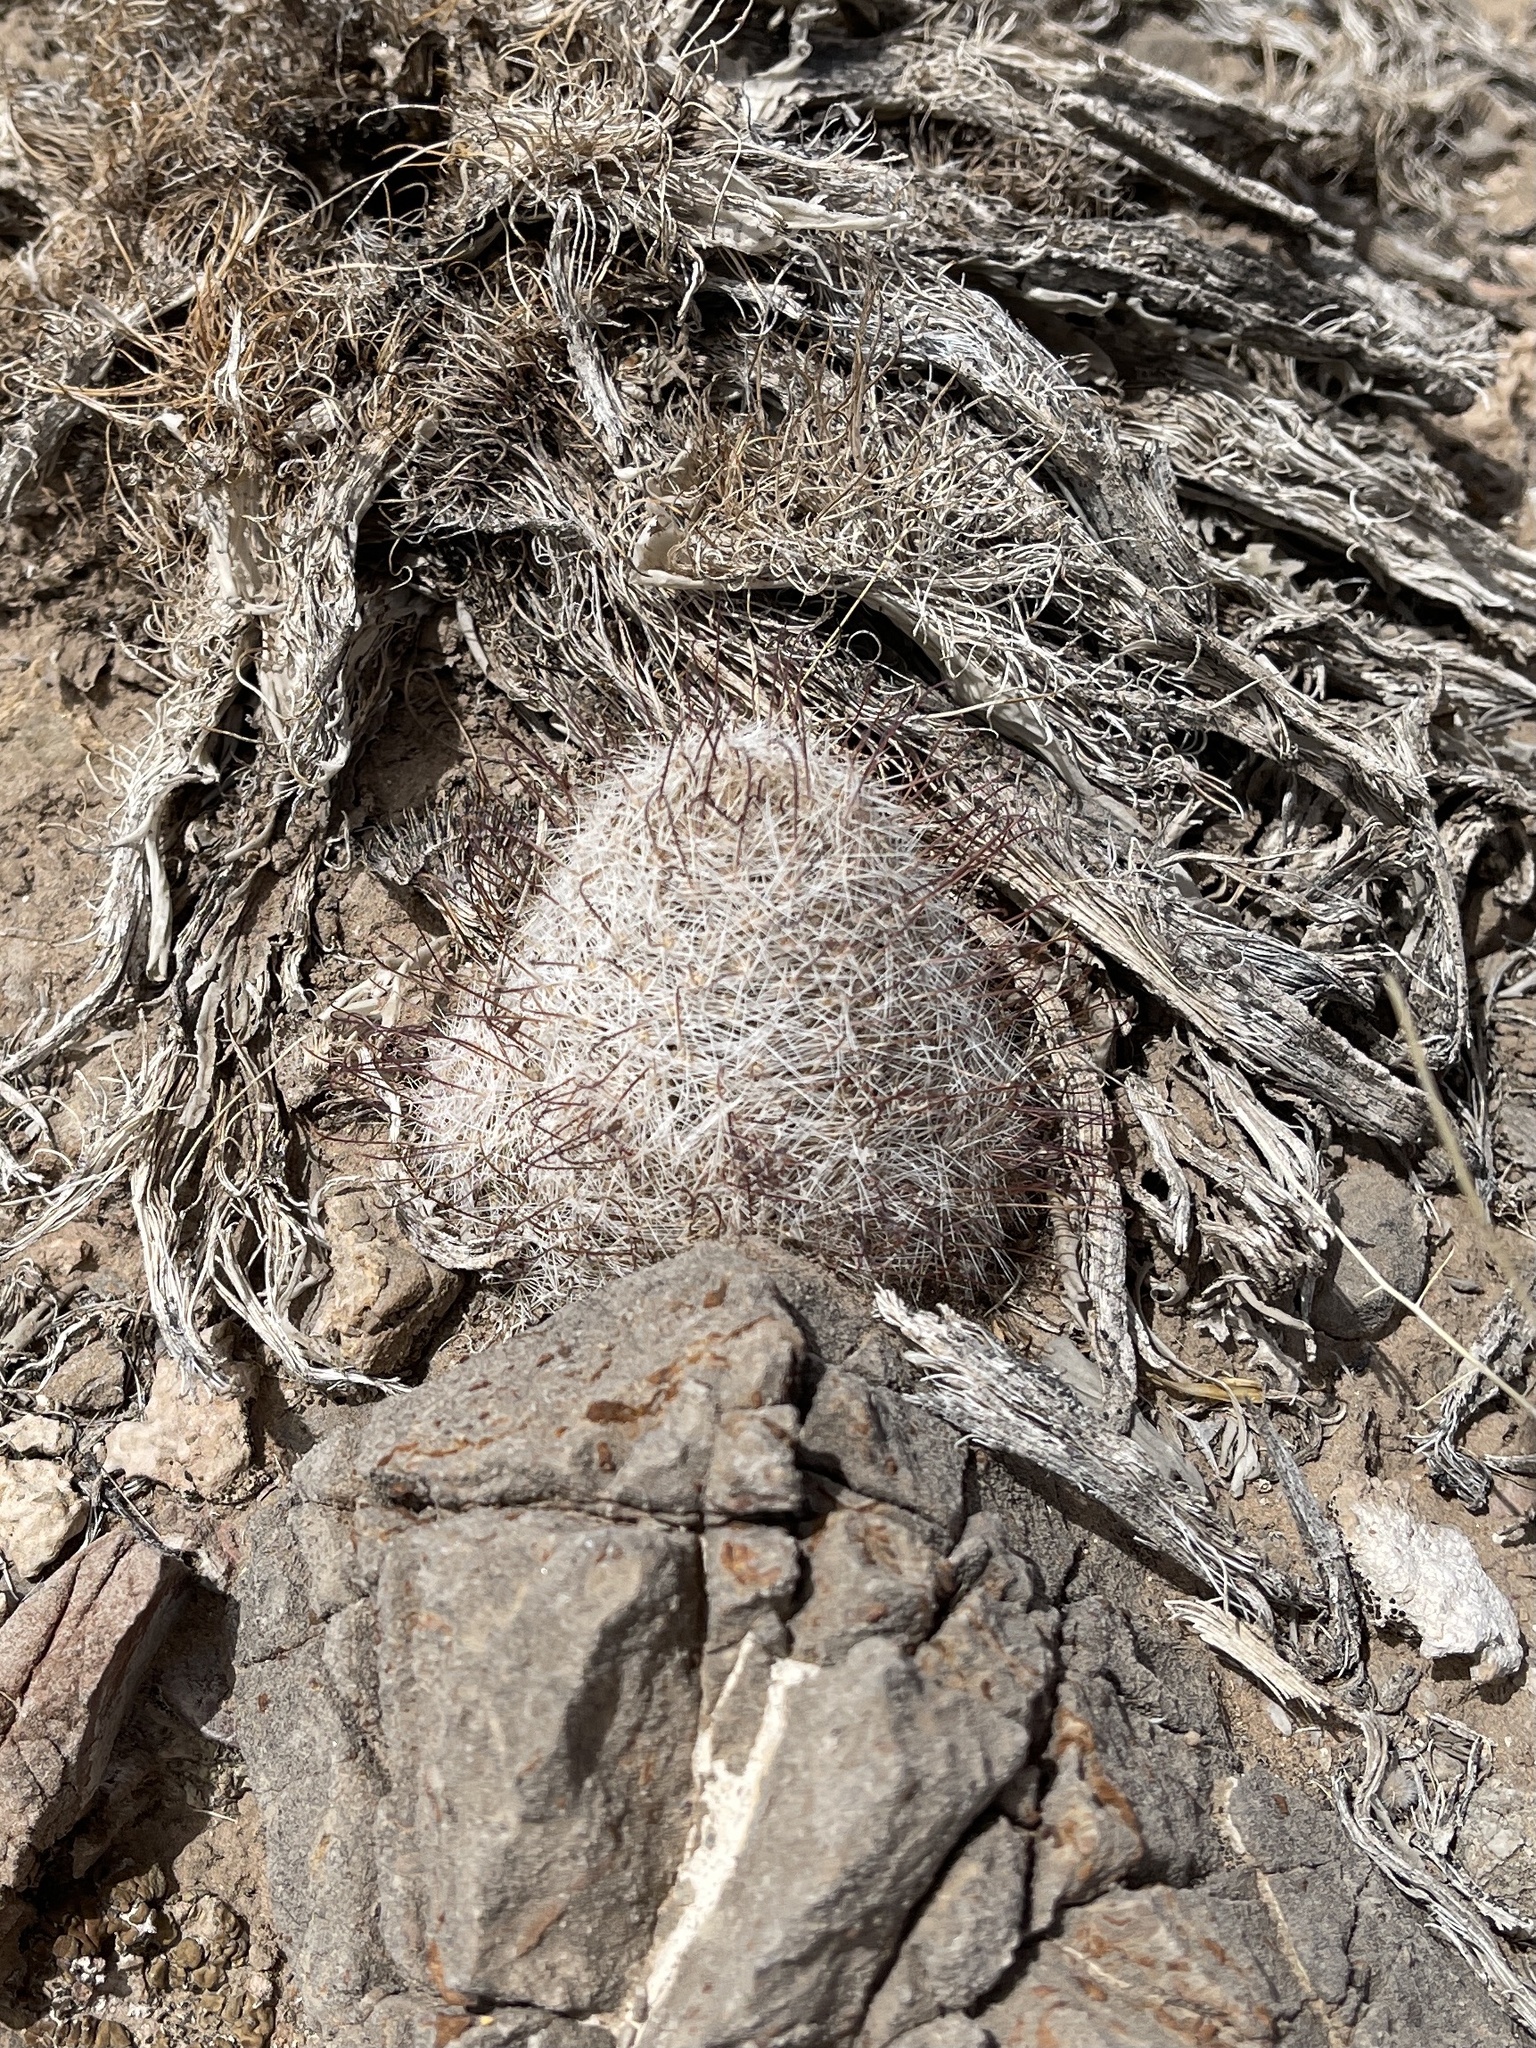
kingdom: Plantae
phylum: Tracheophyta
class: Magnoliopsida
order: Caryophyllales
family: Cactaceae
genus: Cochemiea
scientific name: Cochemiea grahamii
